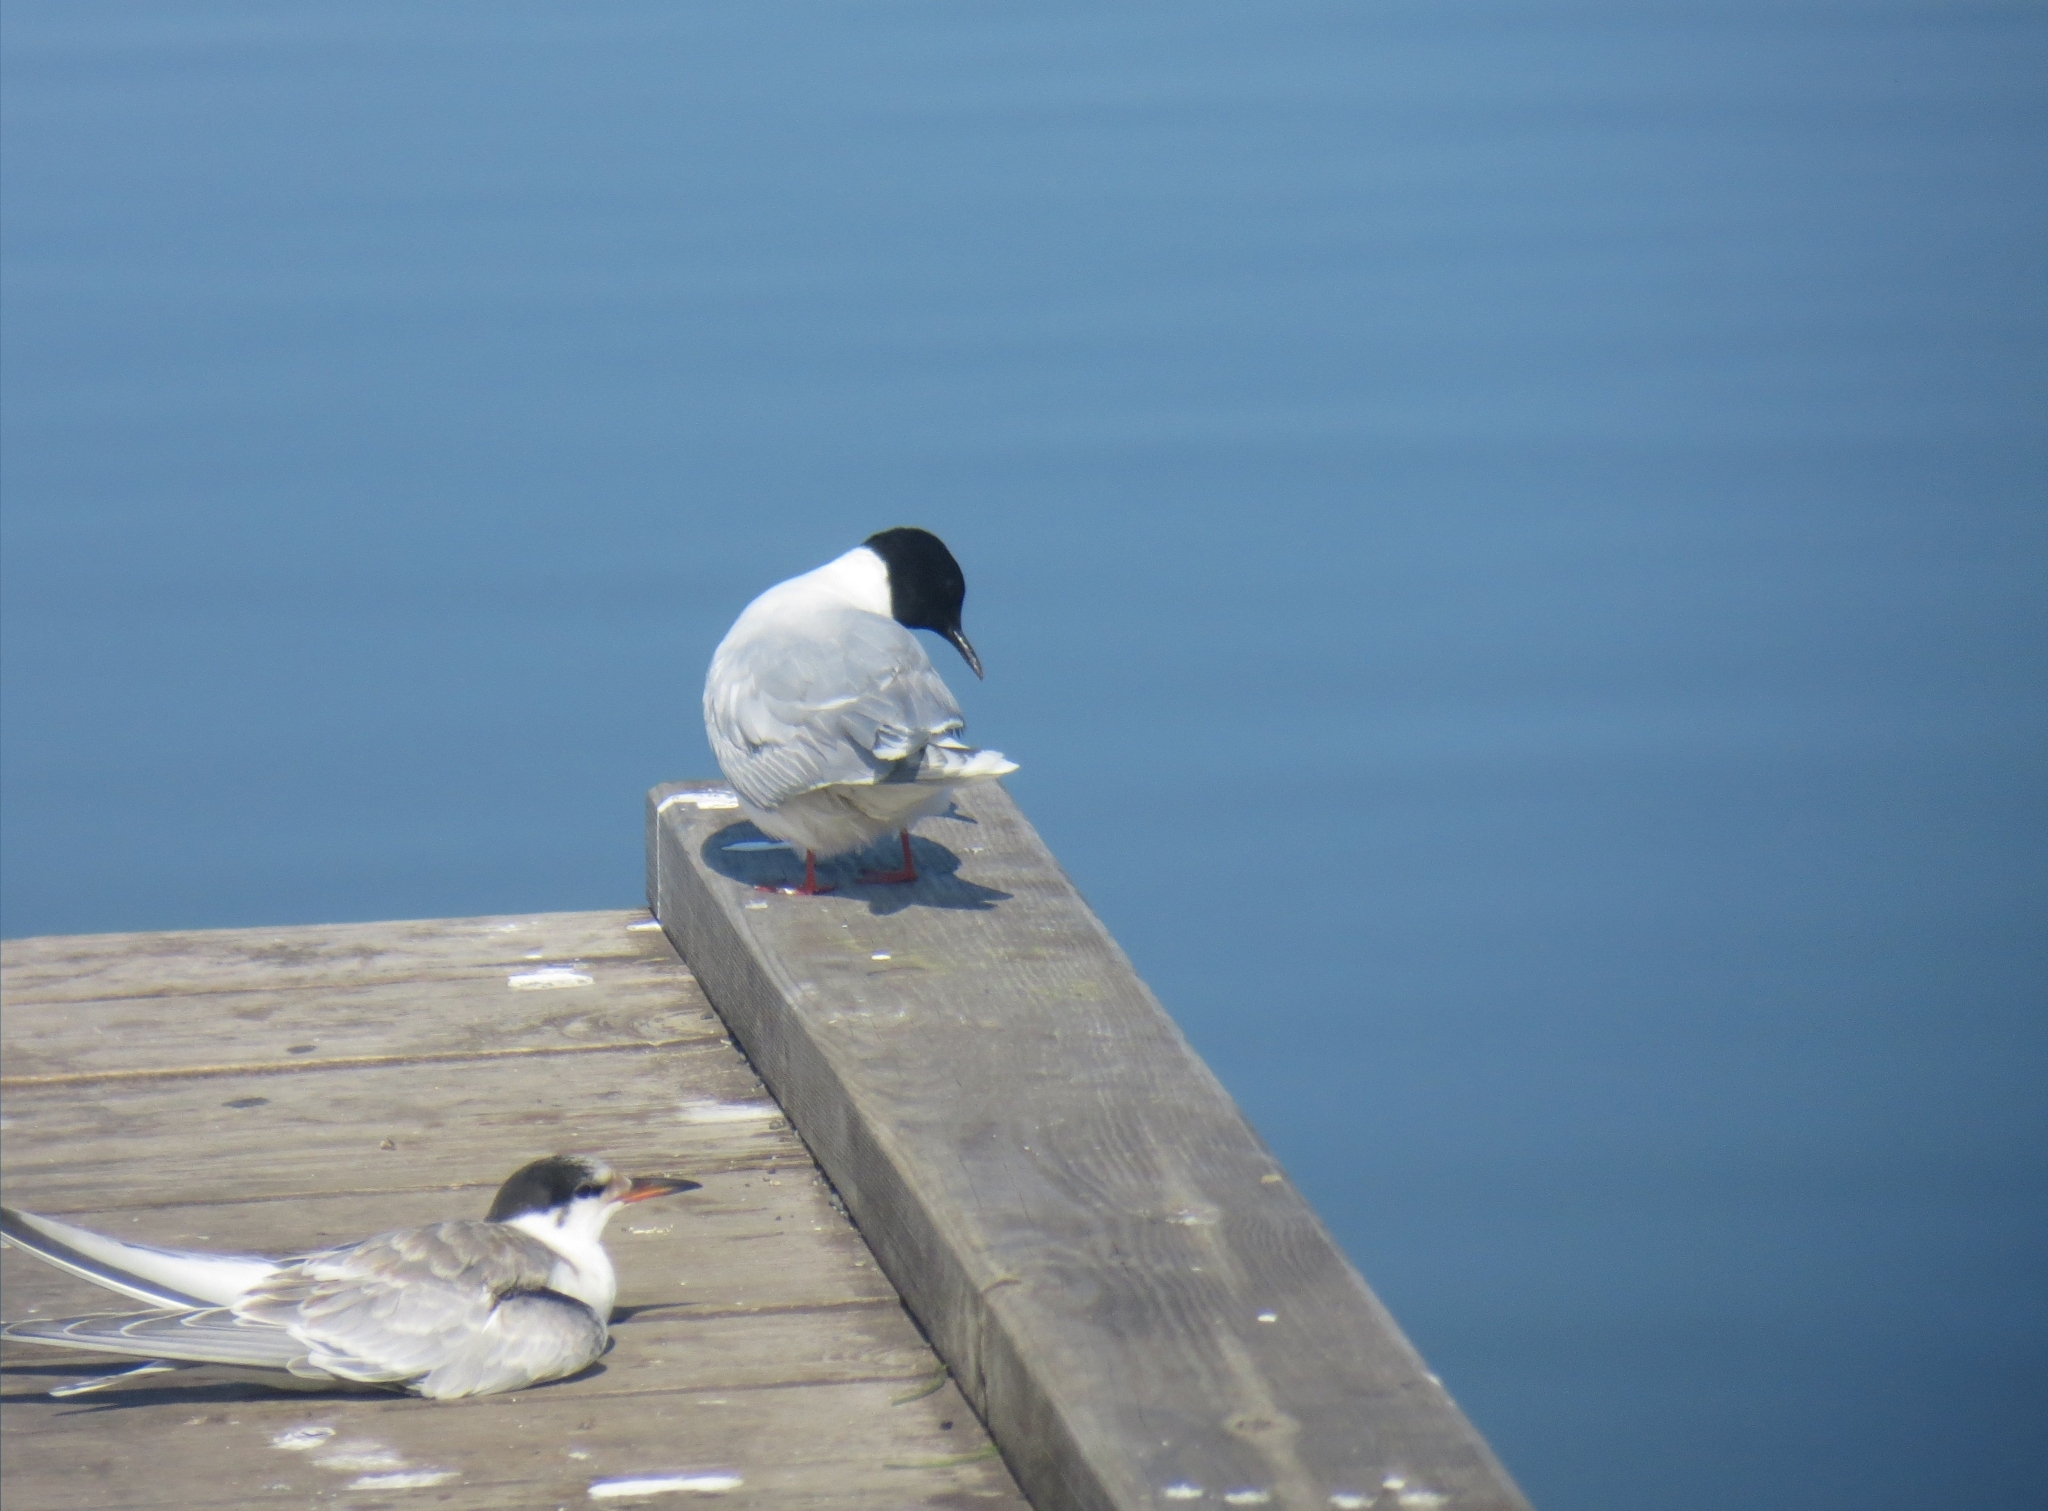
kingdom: Animalia
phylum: Chordata
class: Aves
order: Charadriiformes
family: Laridae
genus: Hydrocoloeus
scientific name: Hydrocoloeus minutus
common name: Little gull
